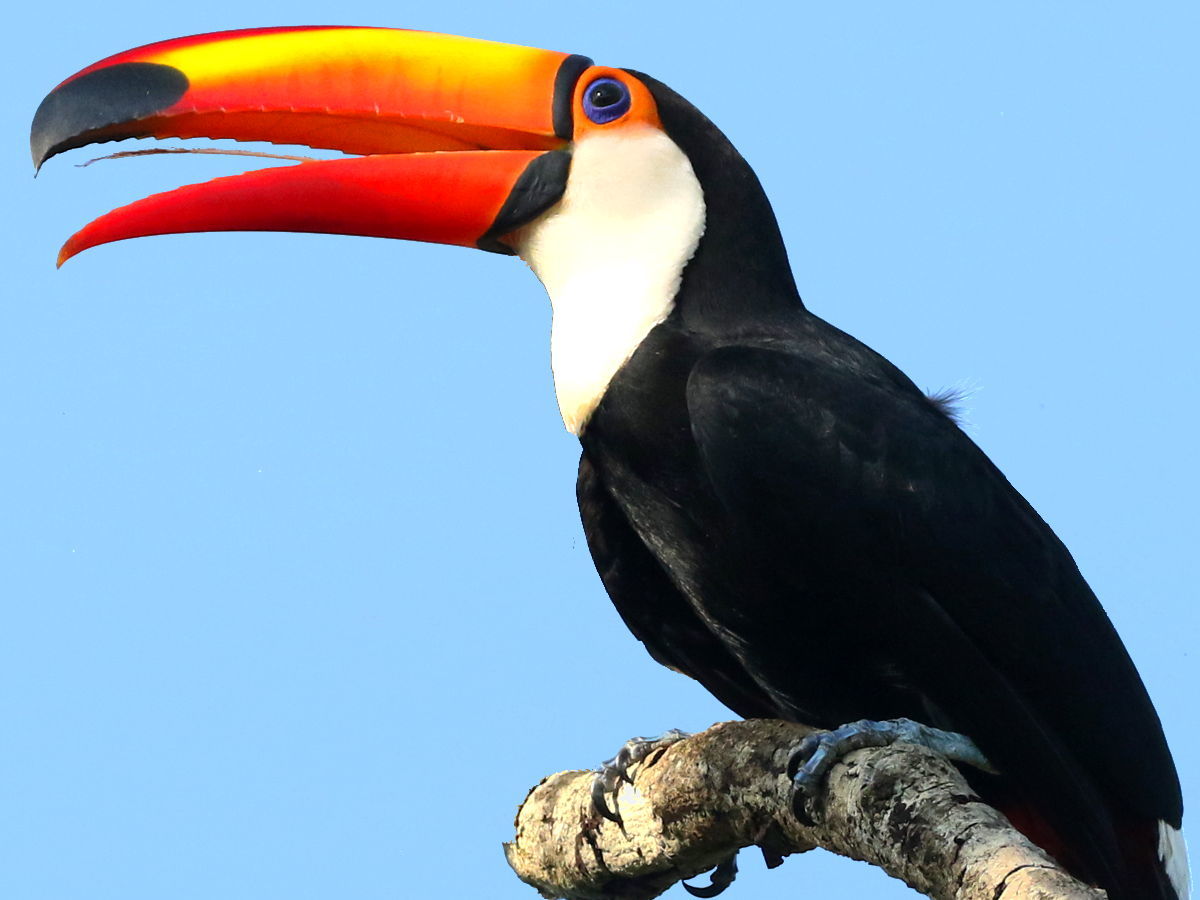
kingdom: Animalia
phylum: Chordata
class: Aves
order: Piciformes
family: Ramphastidae
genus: Ramphastos
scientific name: Ramphastos toco
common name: Toco toucan
